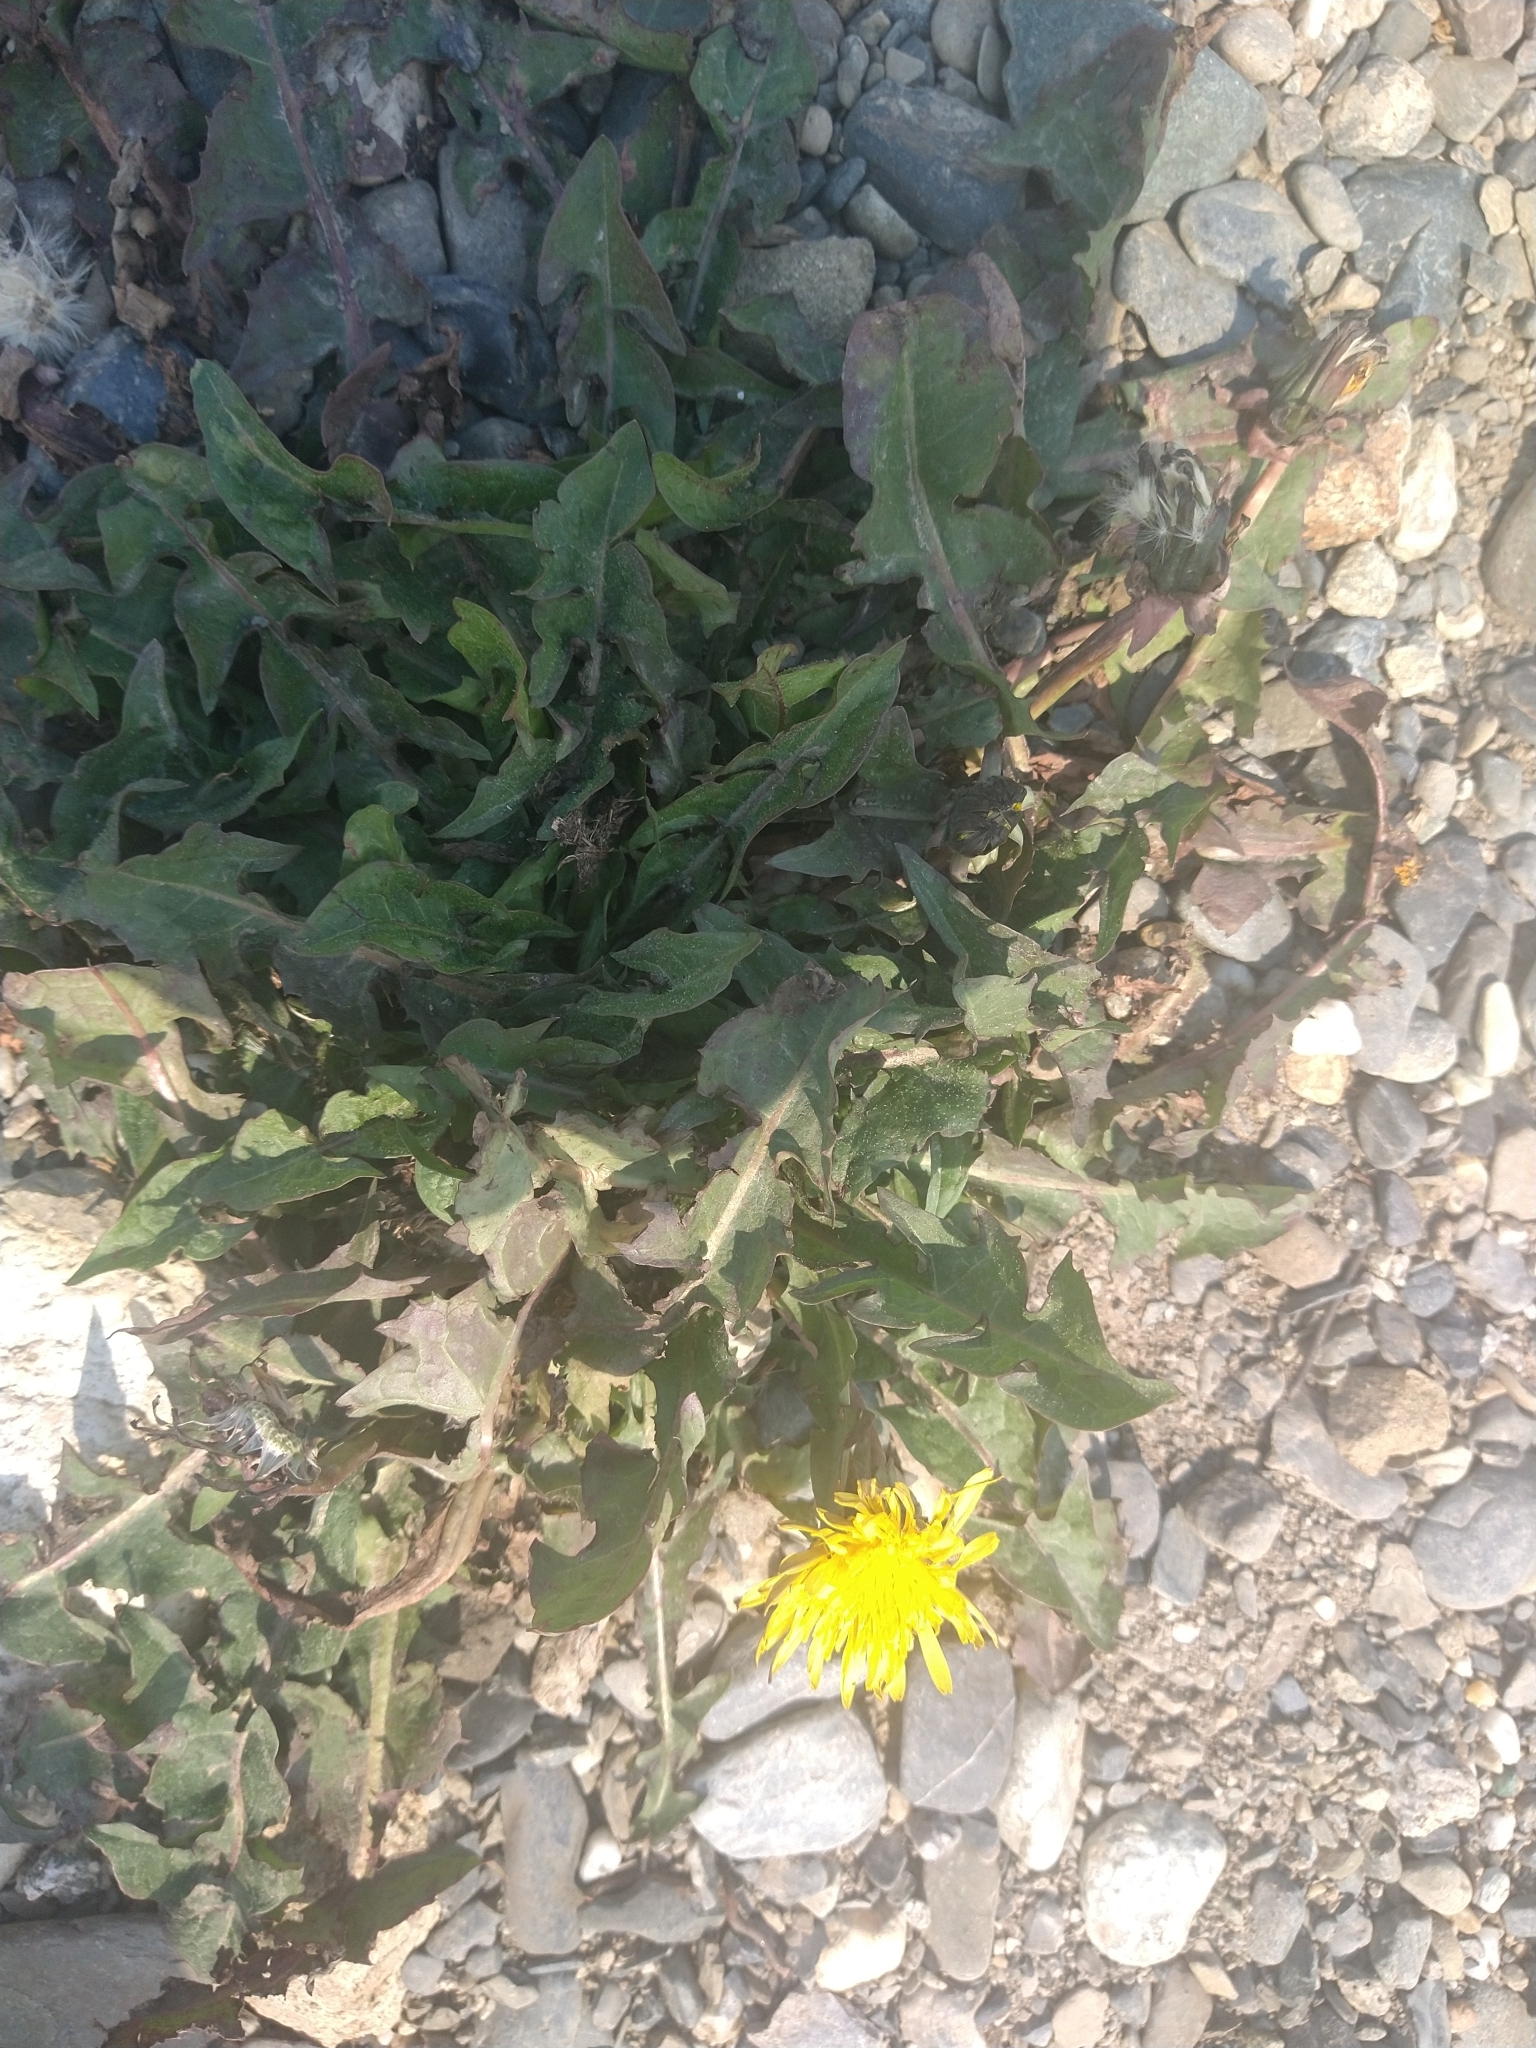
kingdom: Plantae
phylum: Tracheophyta
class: Magnoliopsida
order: Asterales
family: Asteraceae
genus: Taraxacum
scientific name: Taraxacum officinale
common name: Common dandelion
